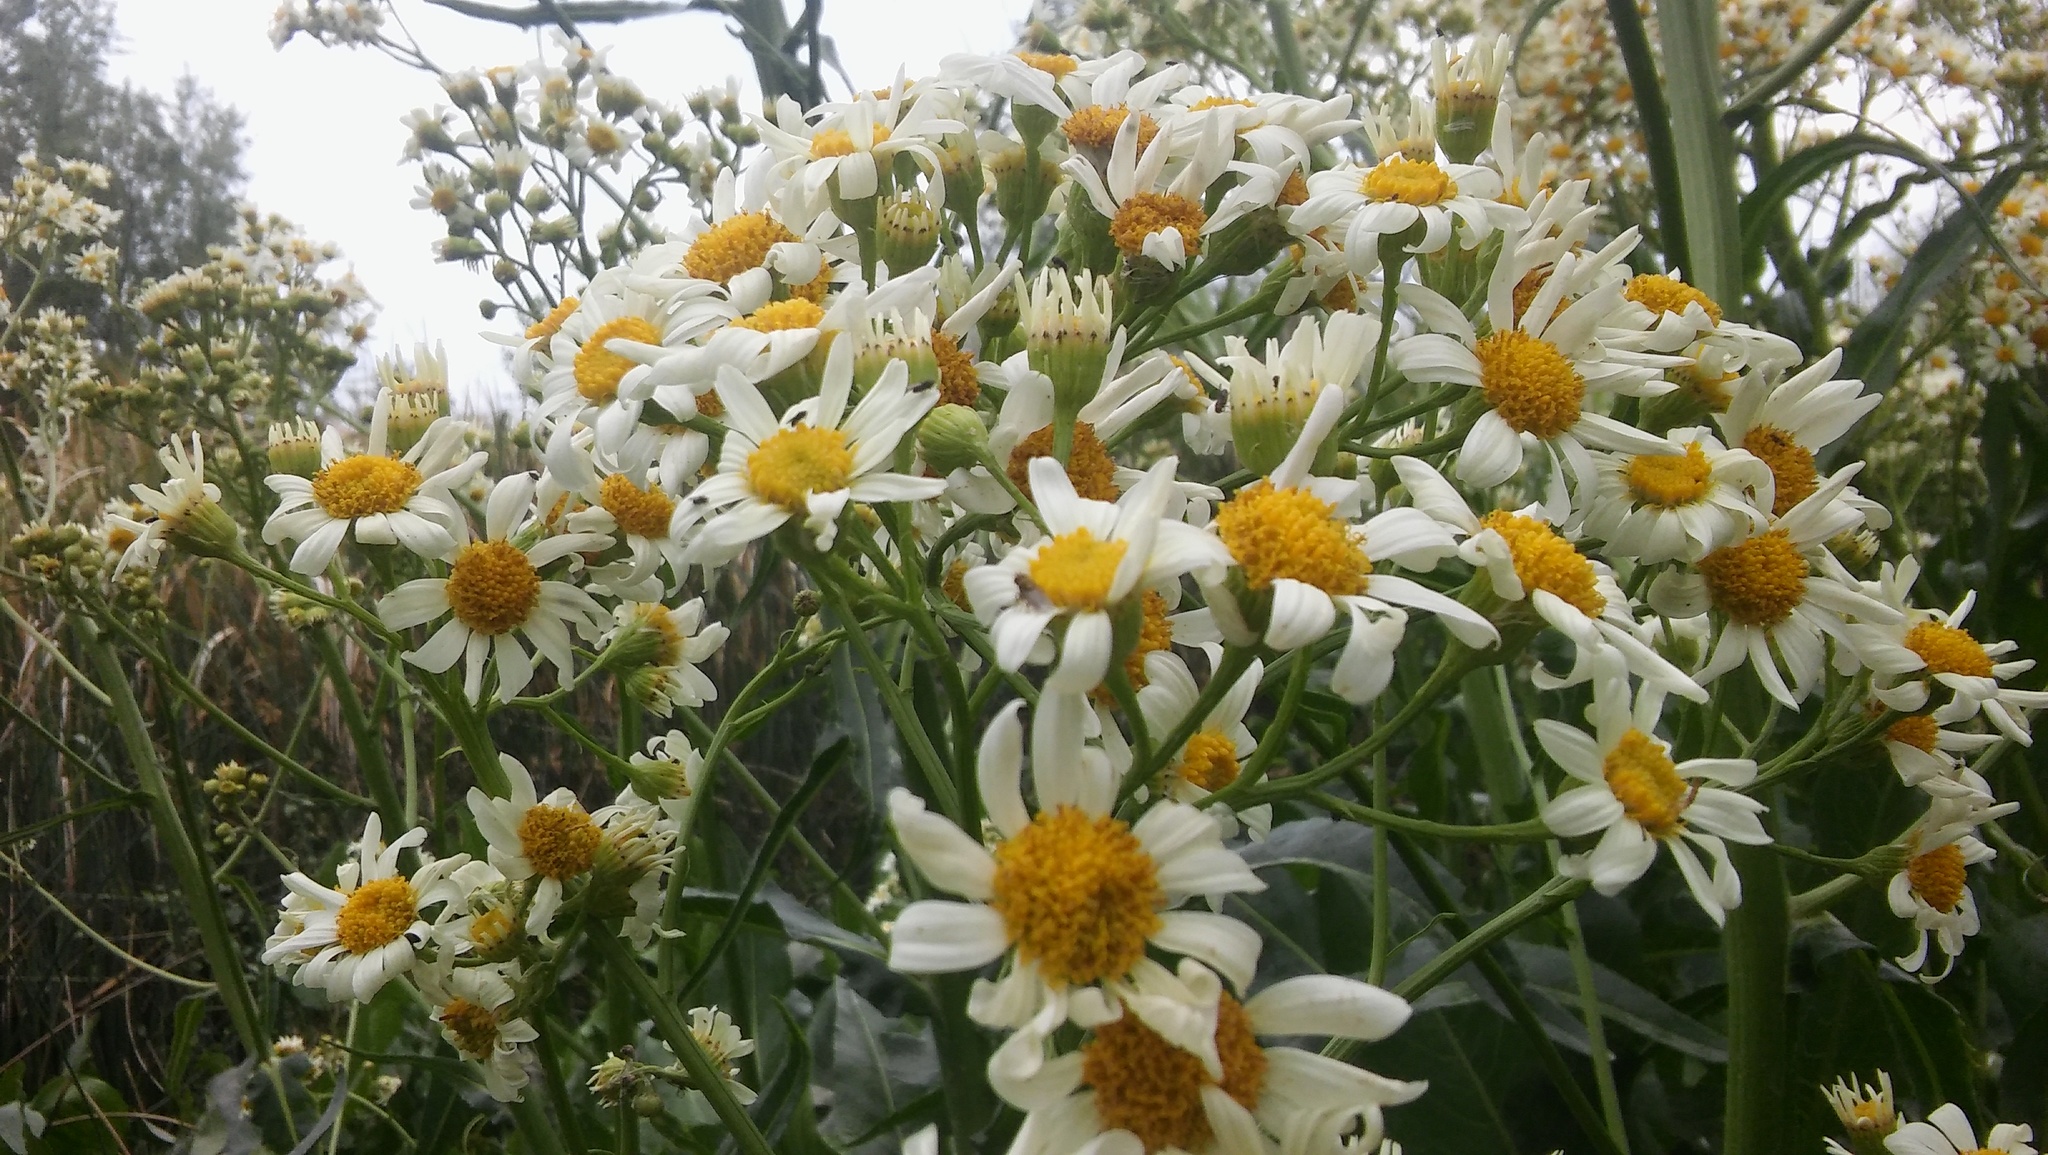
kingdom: Plantae
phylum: Tracheophyta
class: Magnoliopsida
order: Asterales
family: Asteraceae
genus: Senecio
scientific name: Senecio bonariensis
